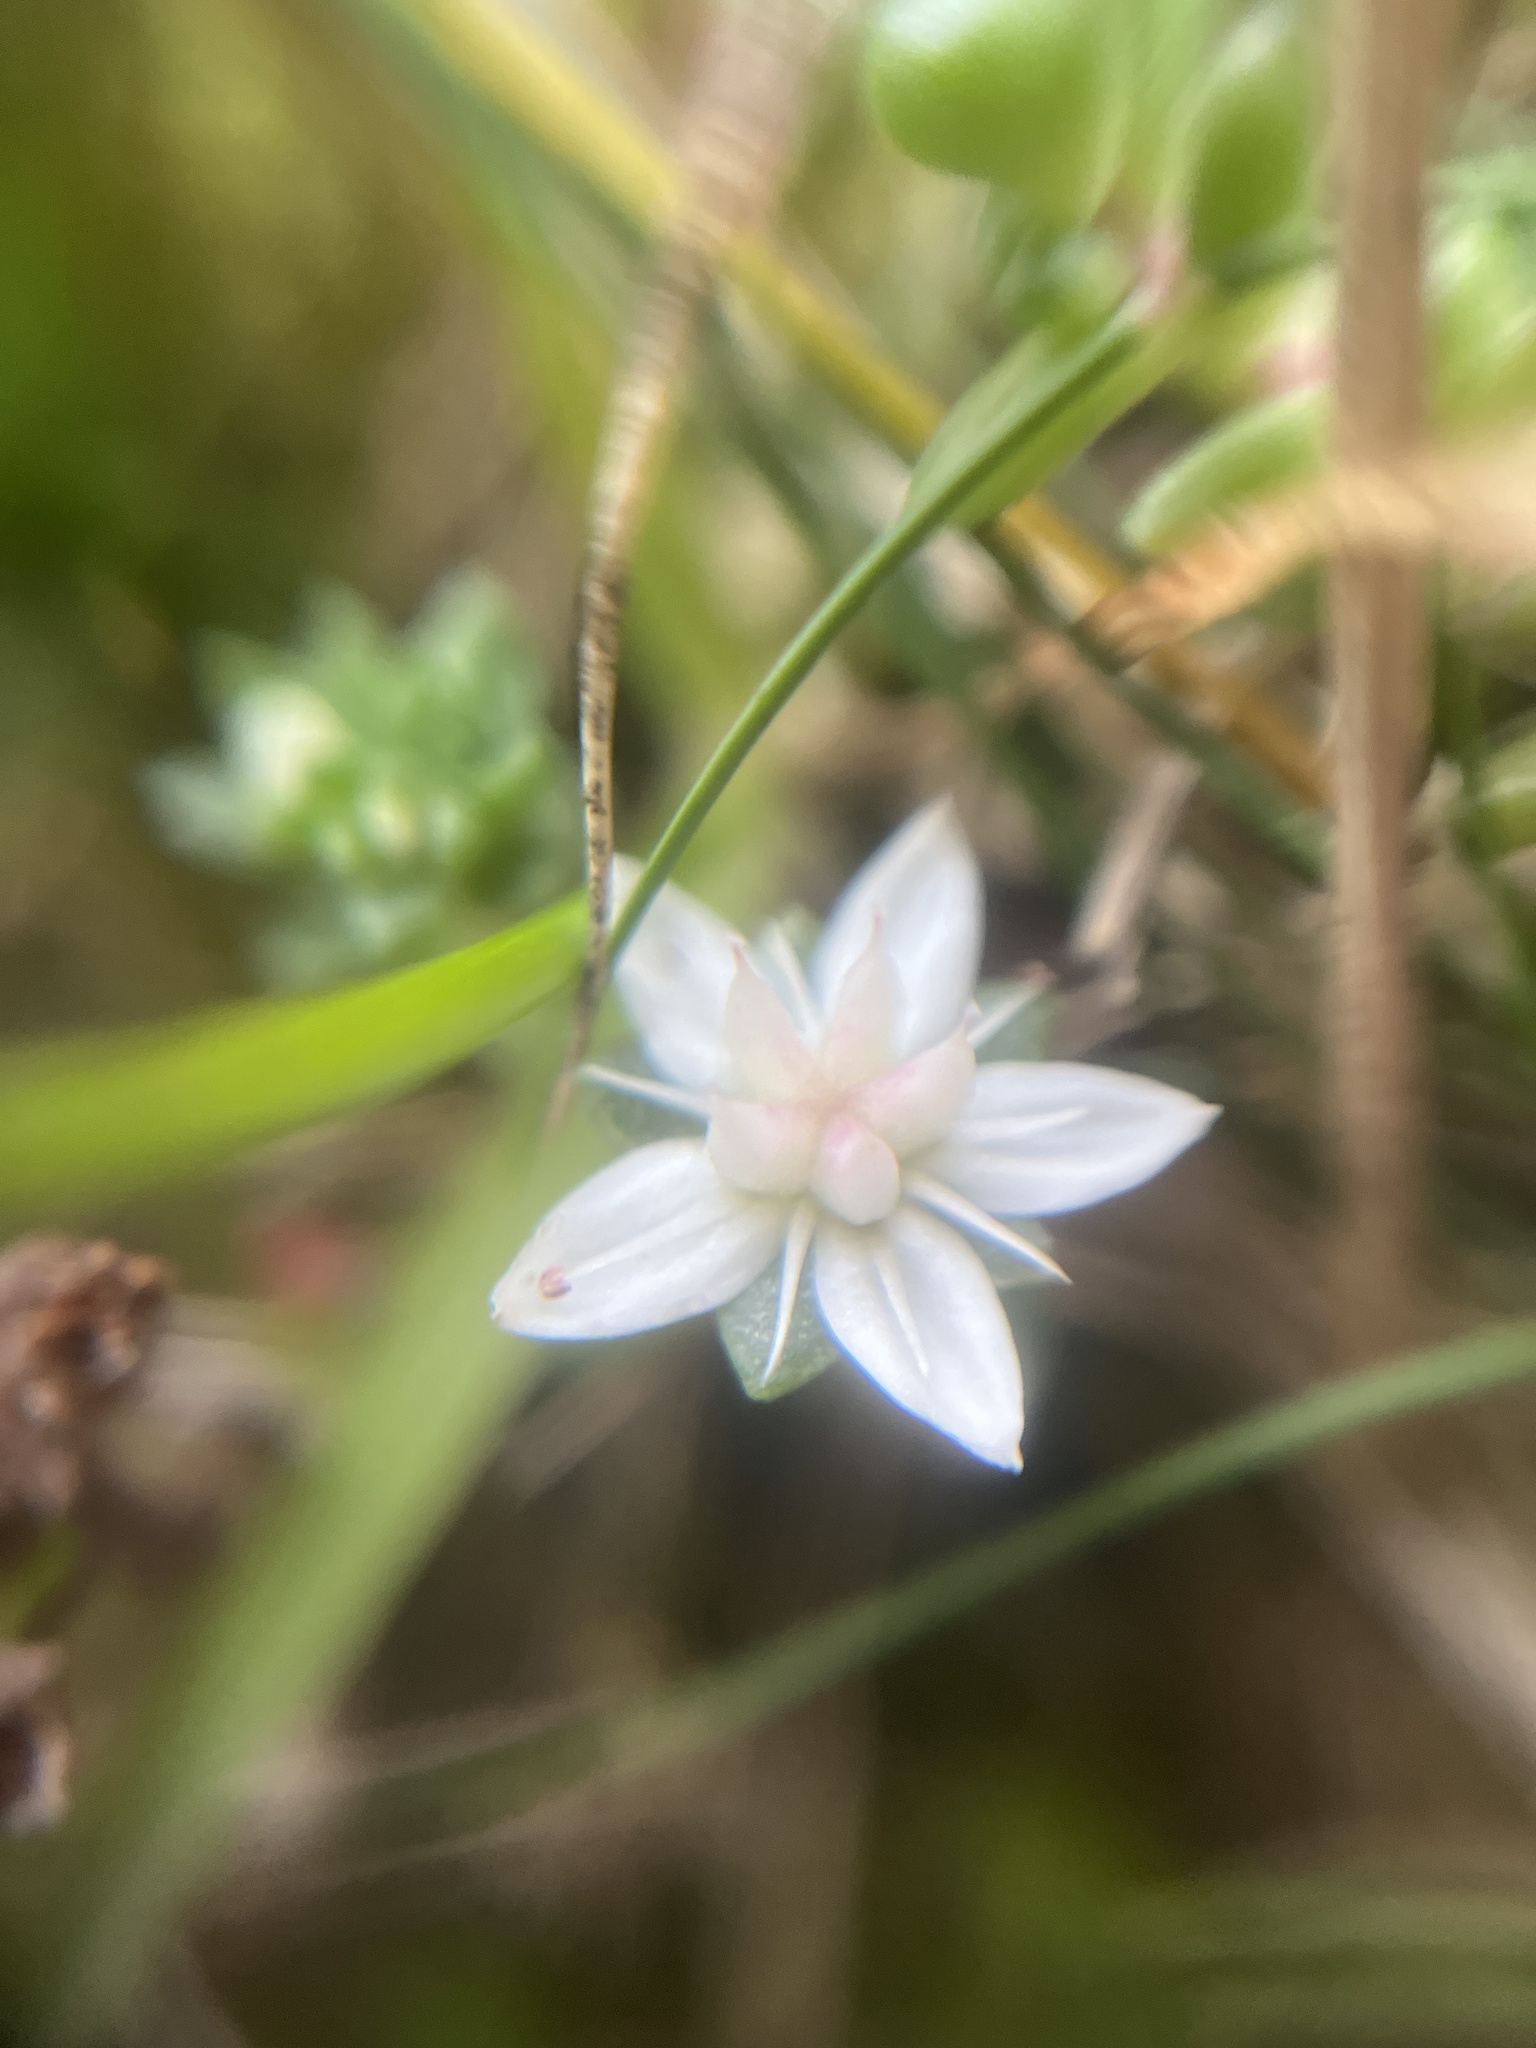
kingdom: Plantae
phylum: Tracheophyta
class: Magnoliopsida
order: Saxifragales
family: Crassulaceae
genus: Sedum
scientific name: Sedum anglicum
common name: English stonecrop
